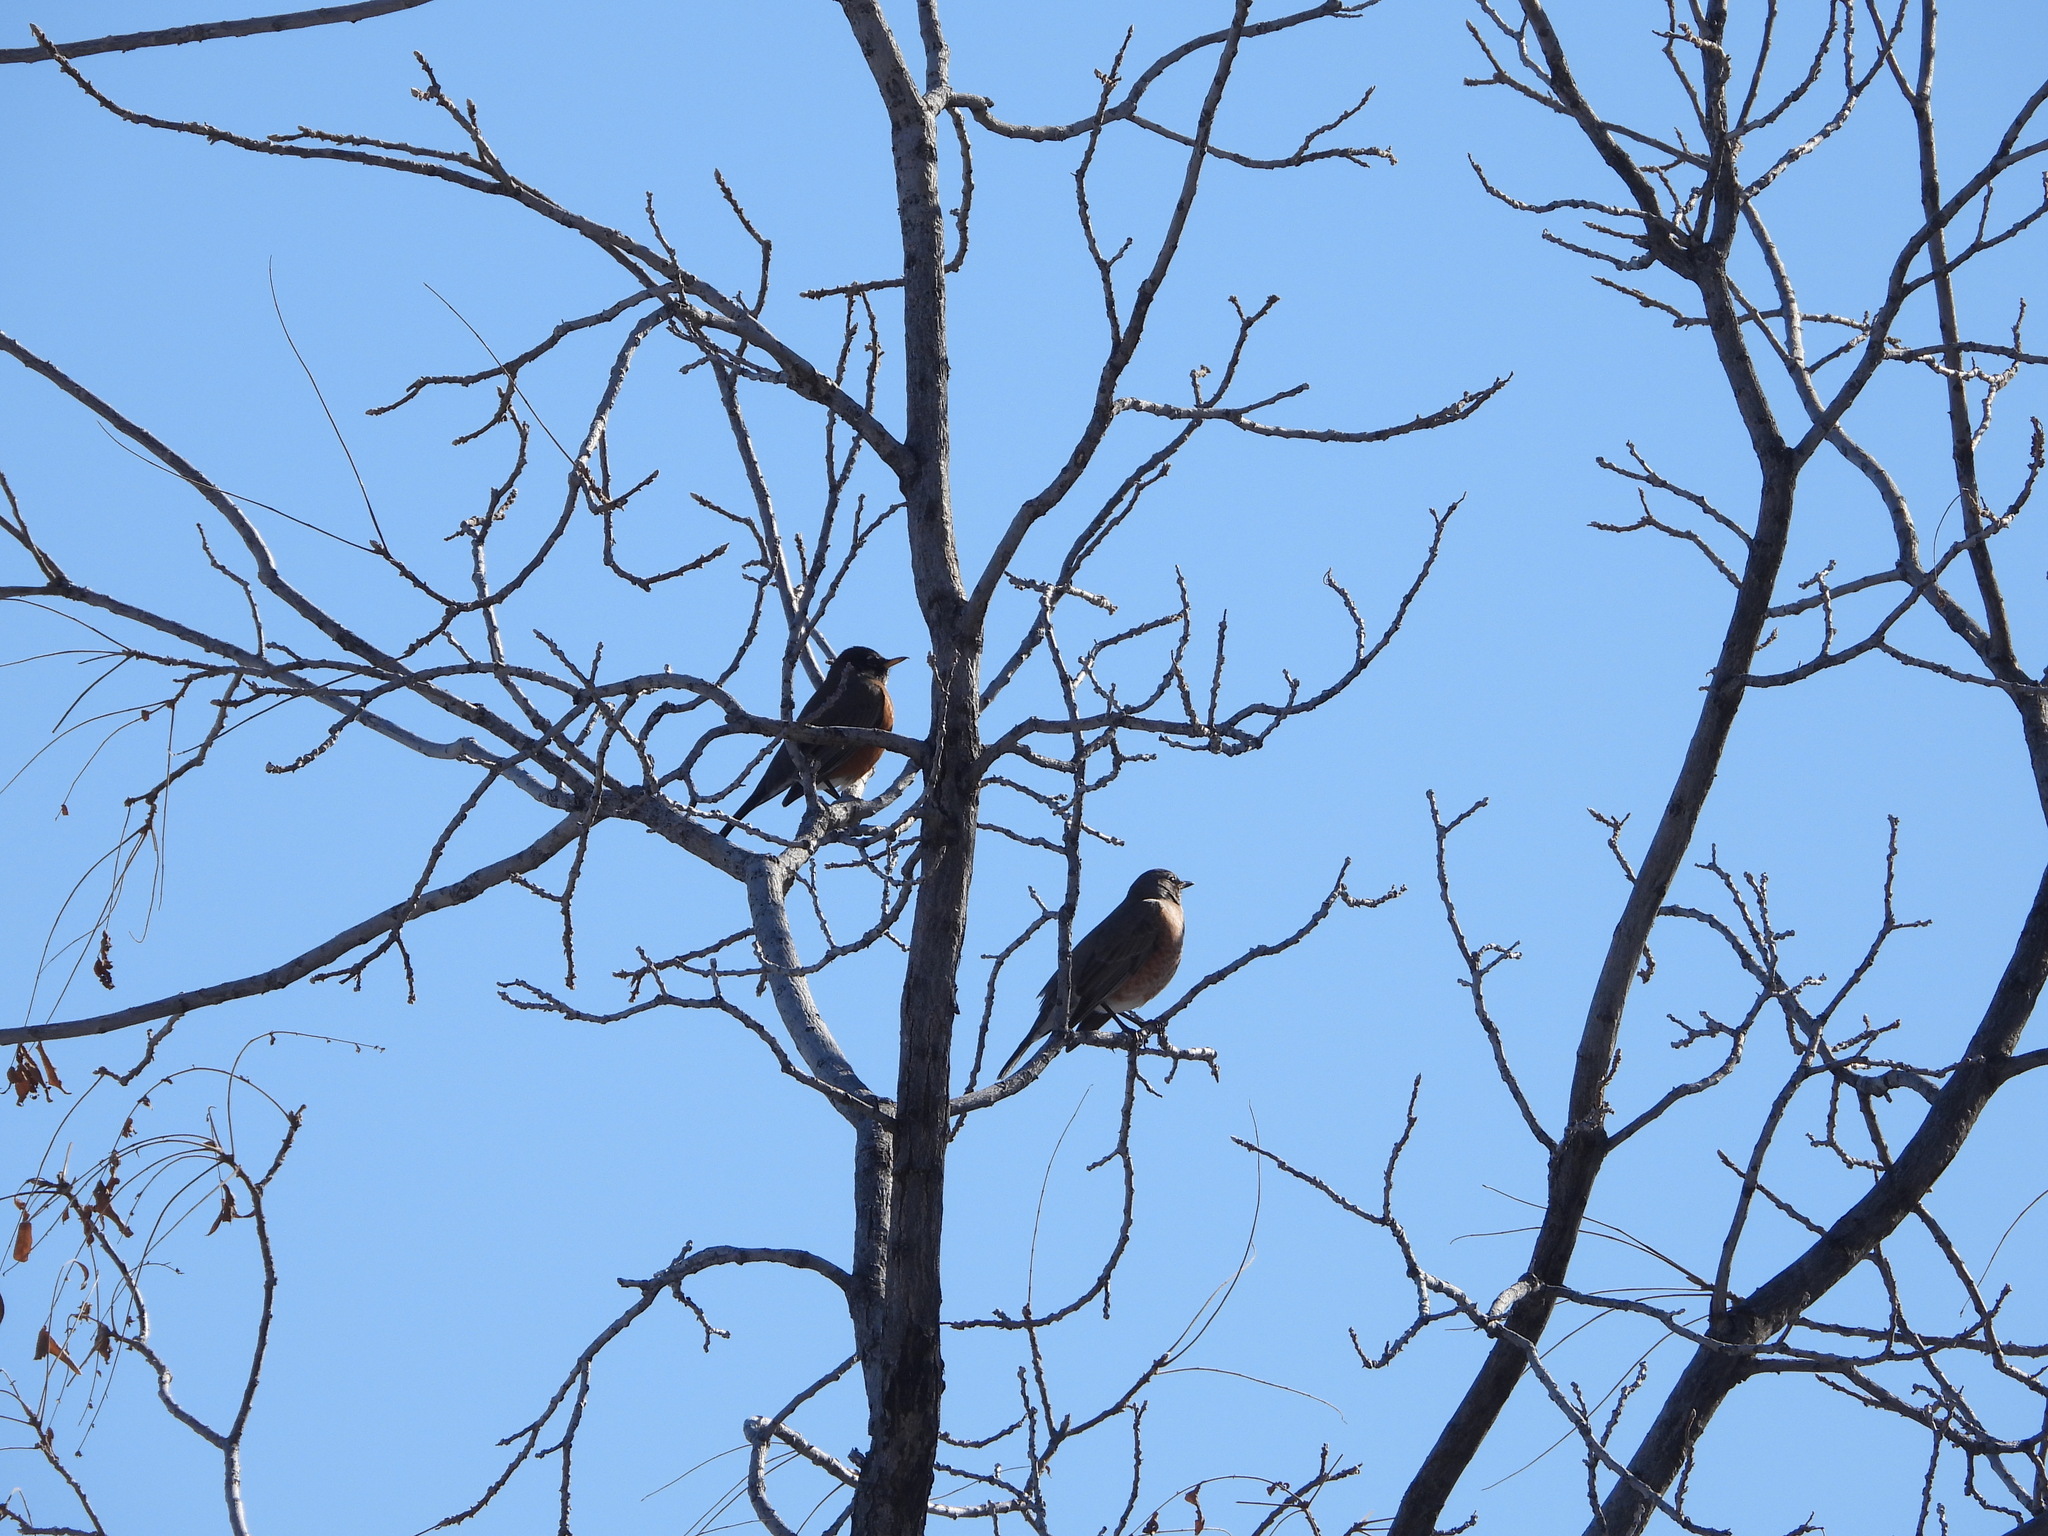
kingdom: Animalia
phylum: Chordata
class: Aves
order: Passeriformes
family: Turdidae
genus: Turdus
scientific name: Turdus migratorius
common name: American robin
